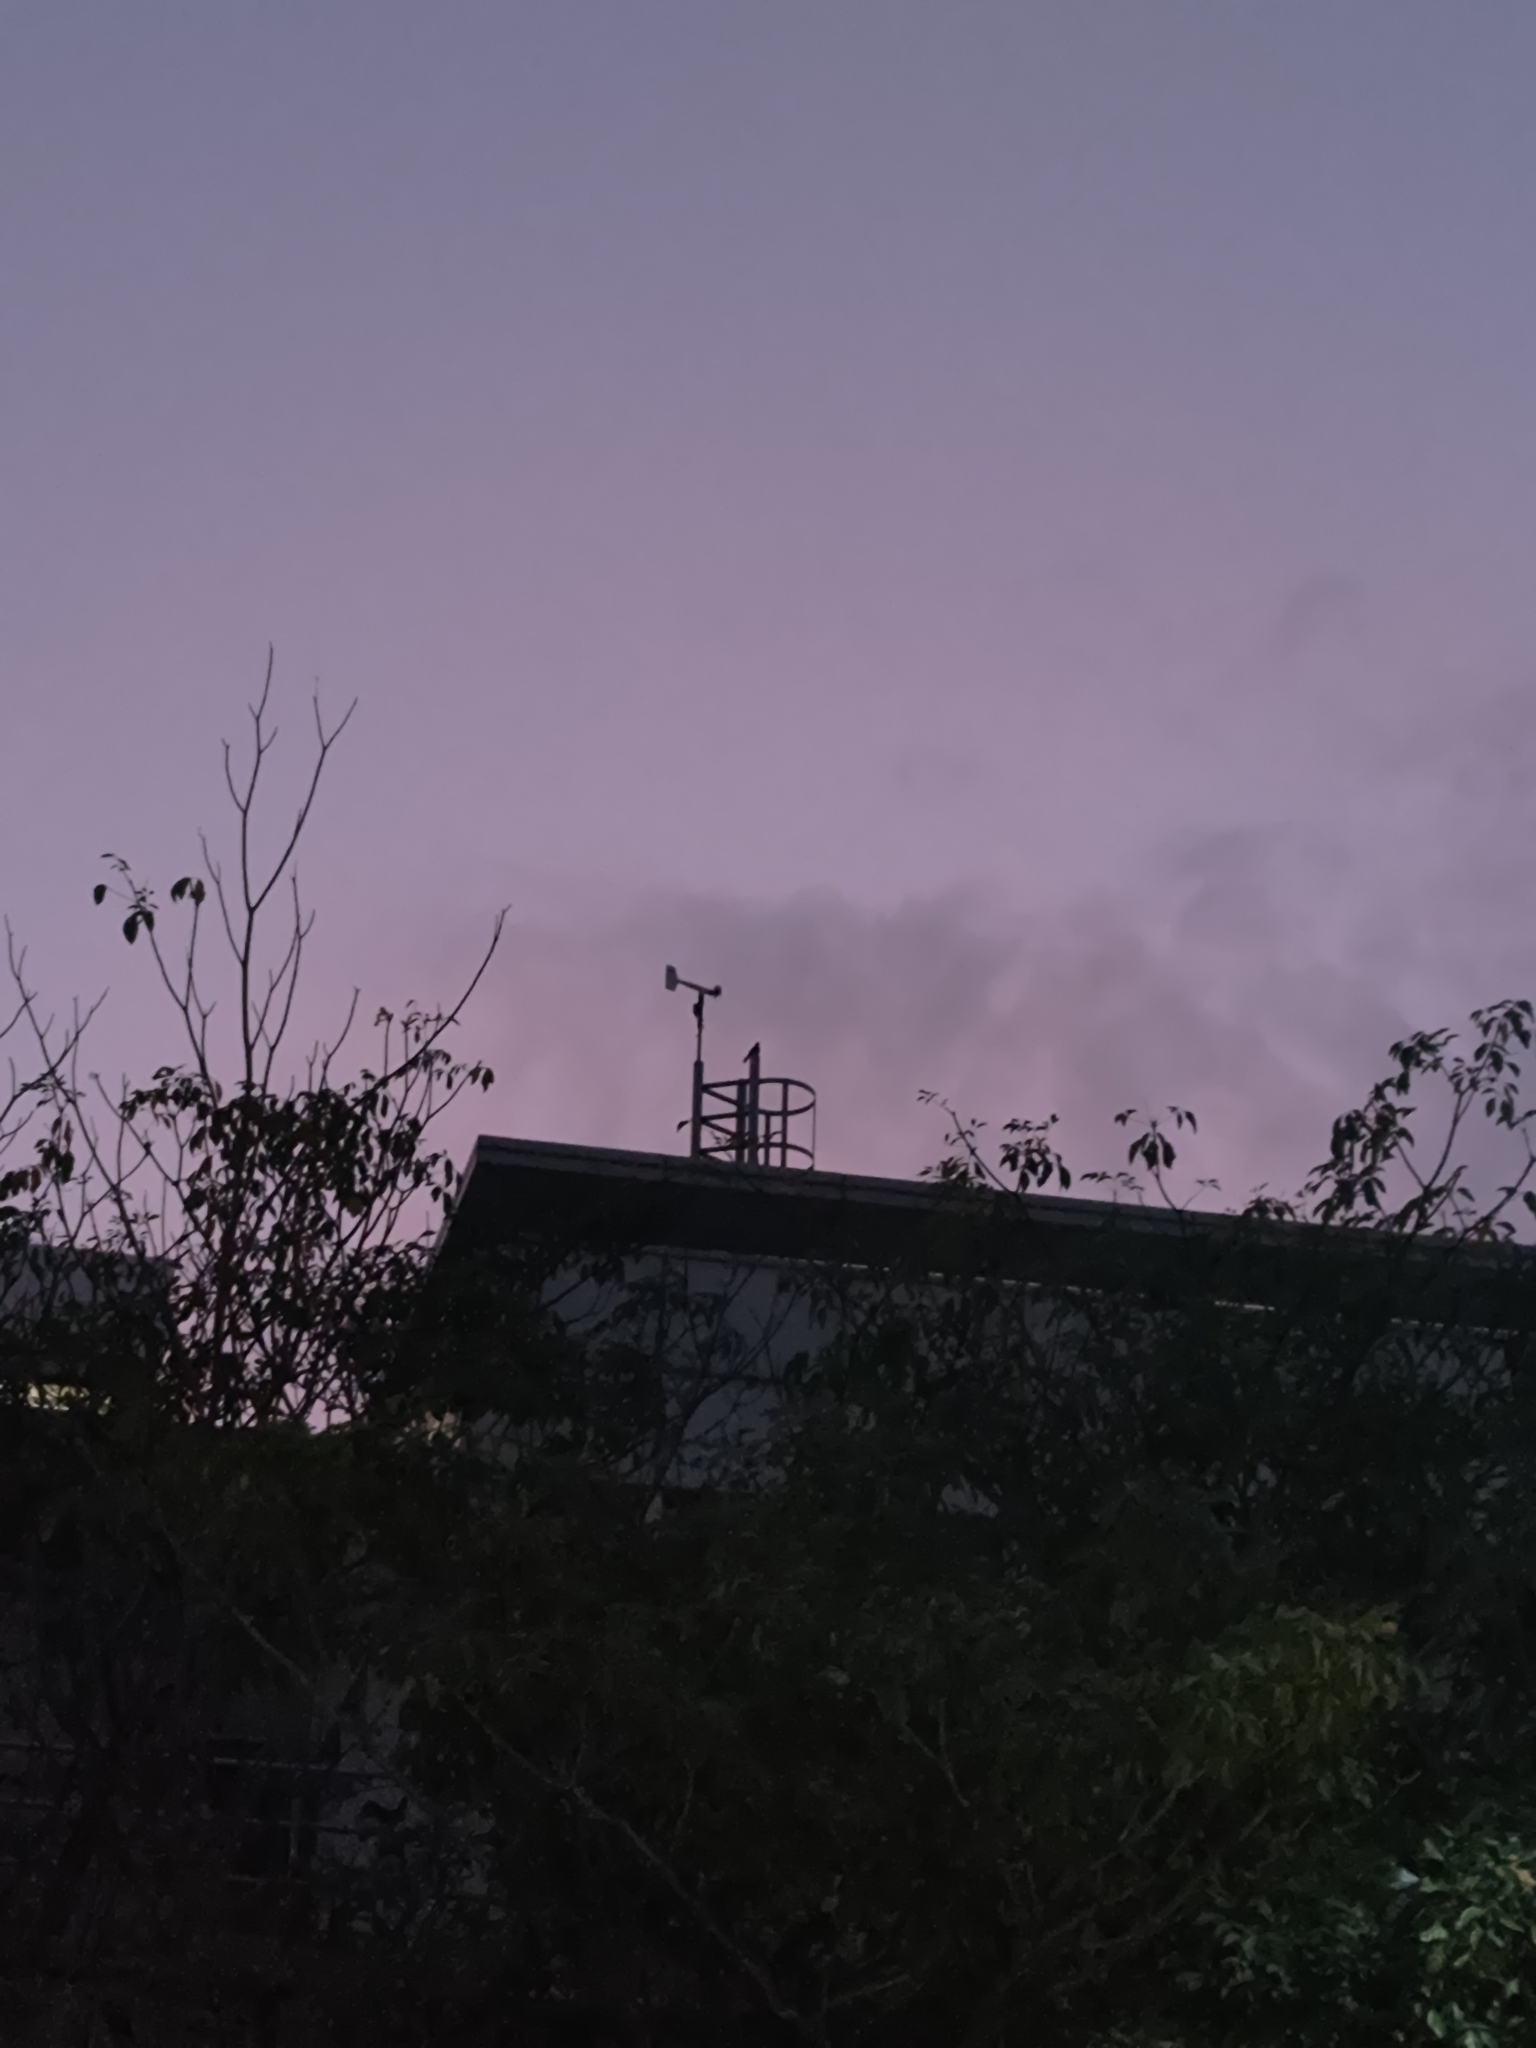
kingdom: Animalia
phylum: Chordata
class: Aves
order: Caprimulgiformes
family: Caprimulgidae
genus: Caprimulgus
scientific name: Caprimulgus affinis
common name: Savanna nightjar
